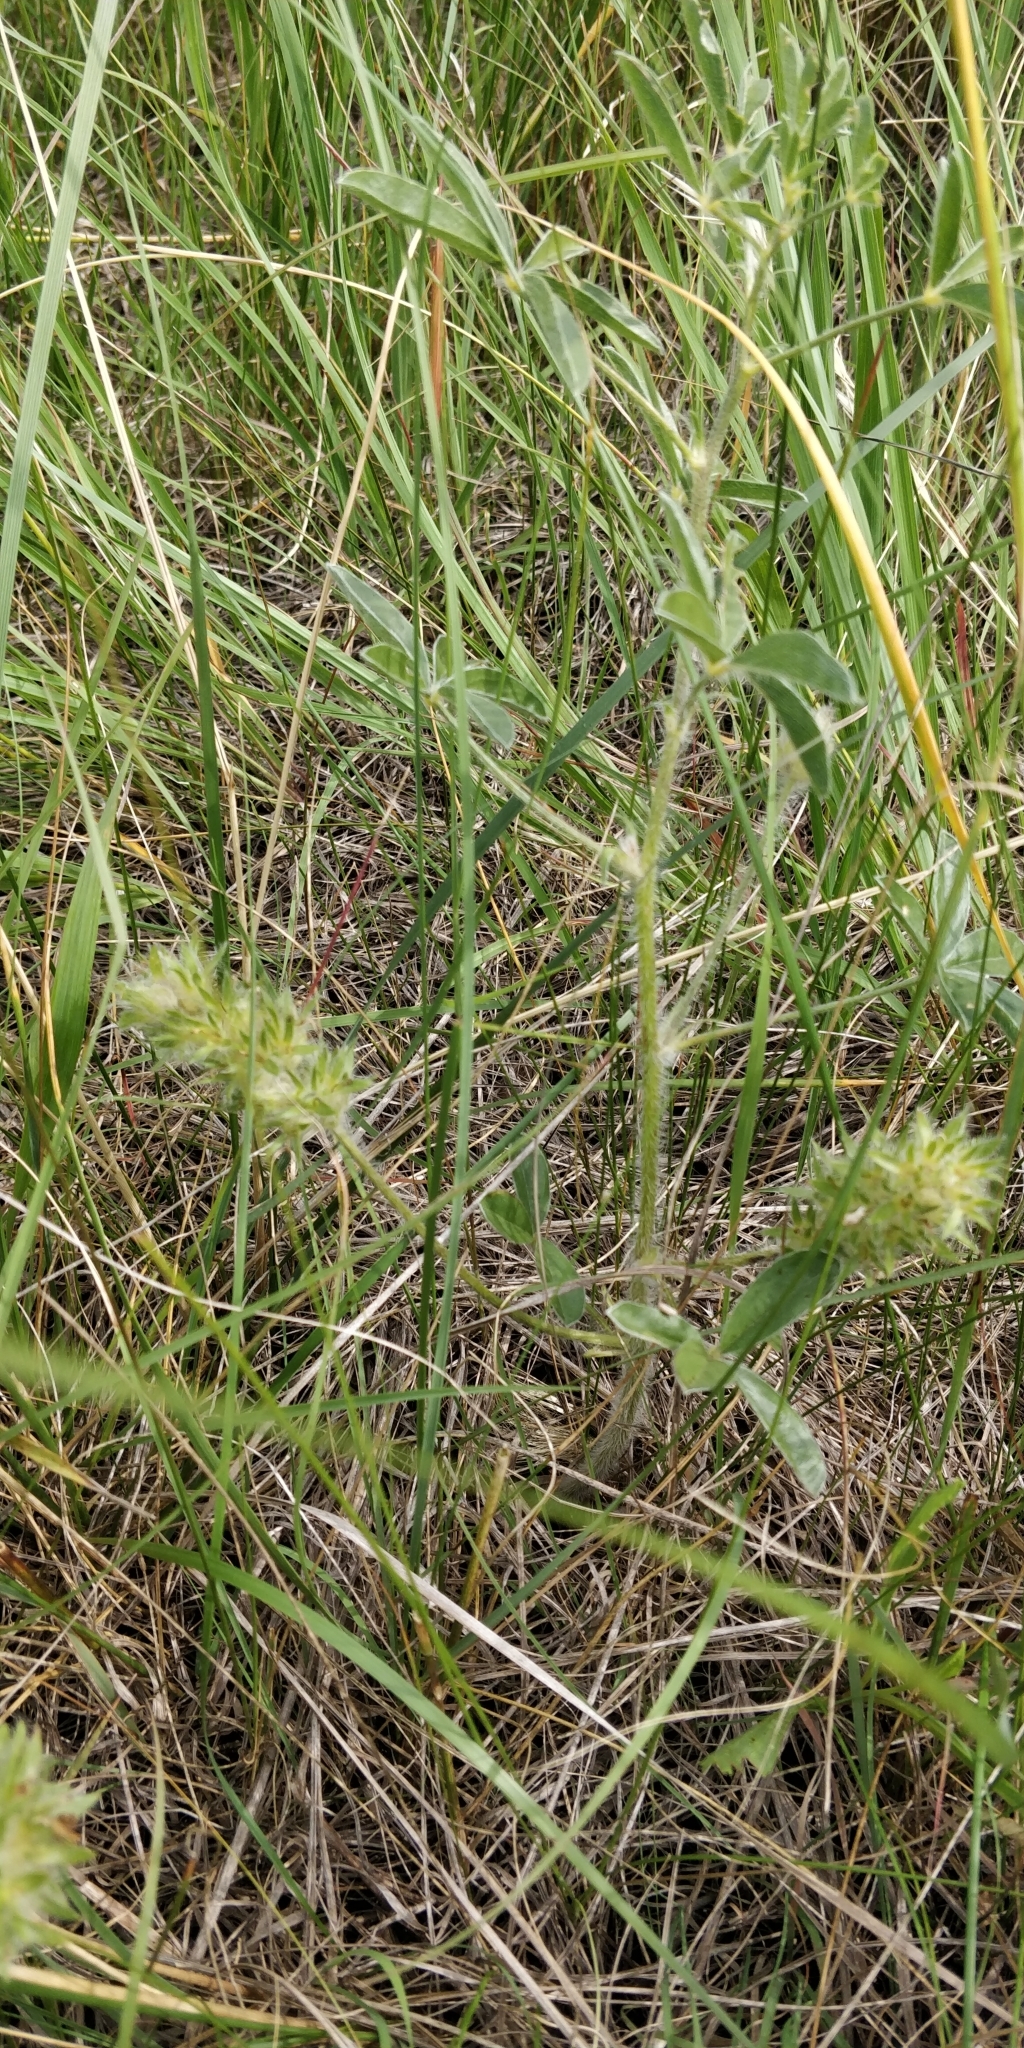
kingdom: Plantae
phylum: Tracheophyta
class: Magnoliopsida
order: Fabales
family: Fabaceae
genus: Pediomelum
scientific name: Pediomelum esculentum
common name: Indian-turnip
